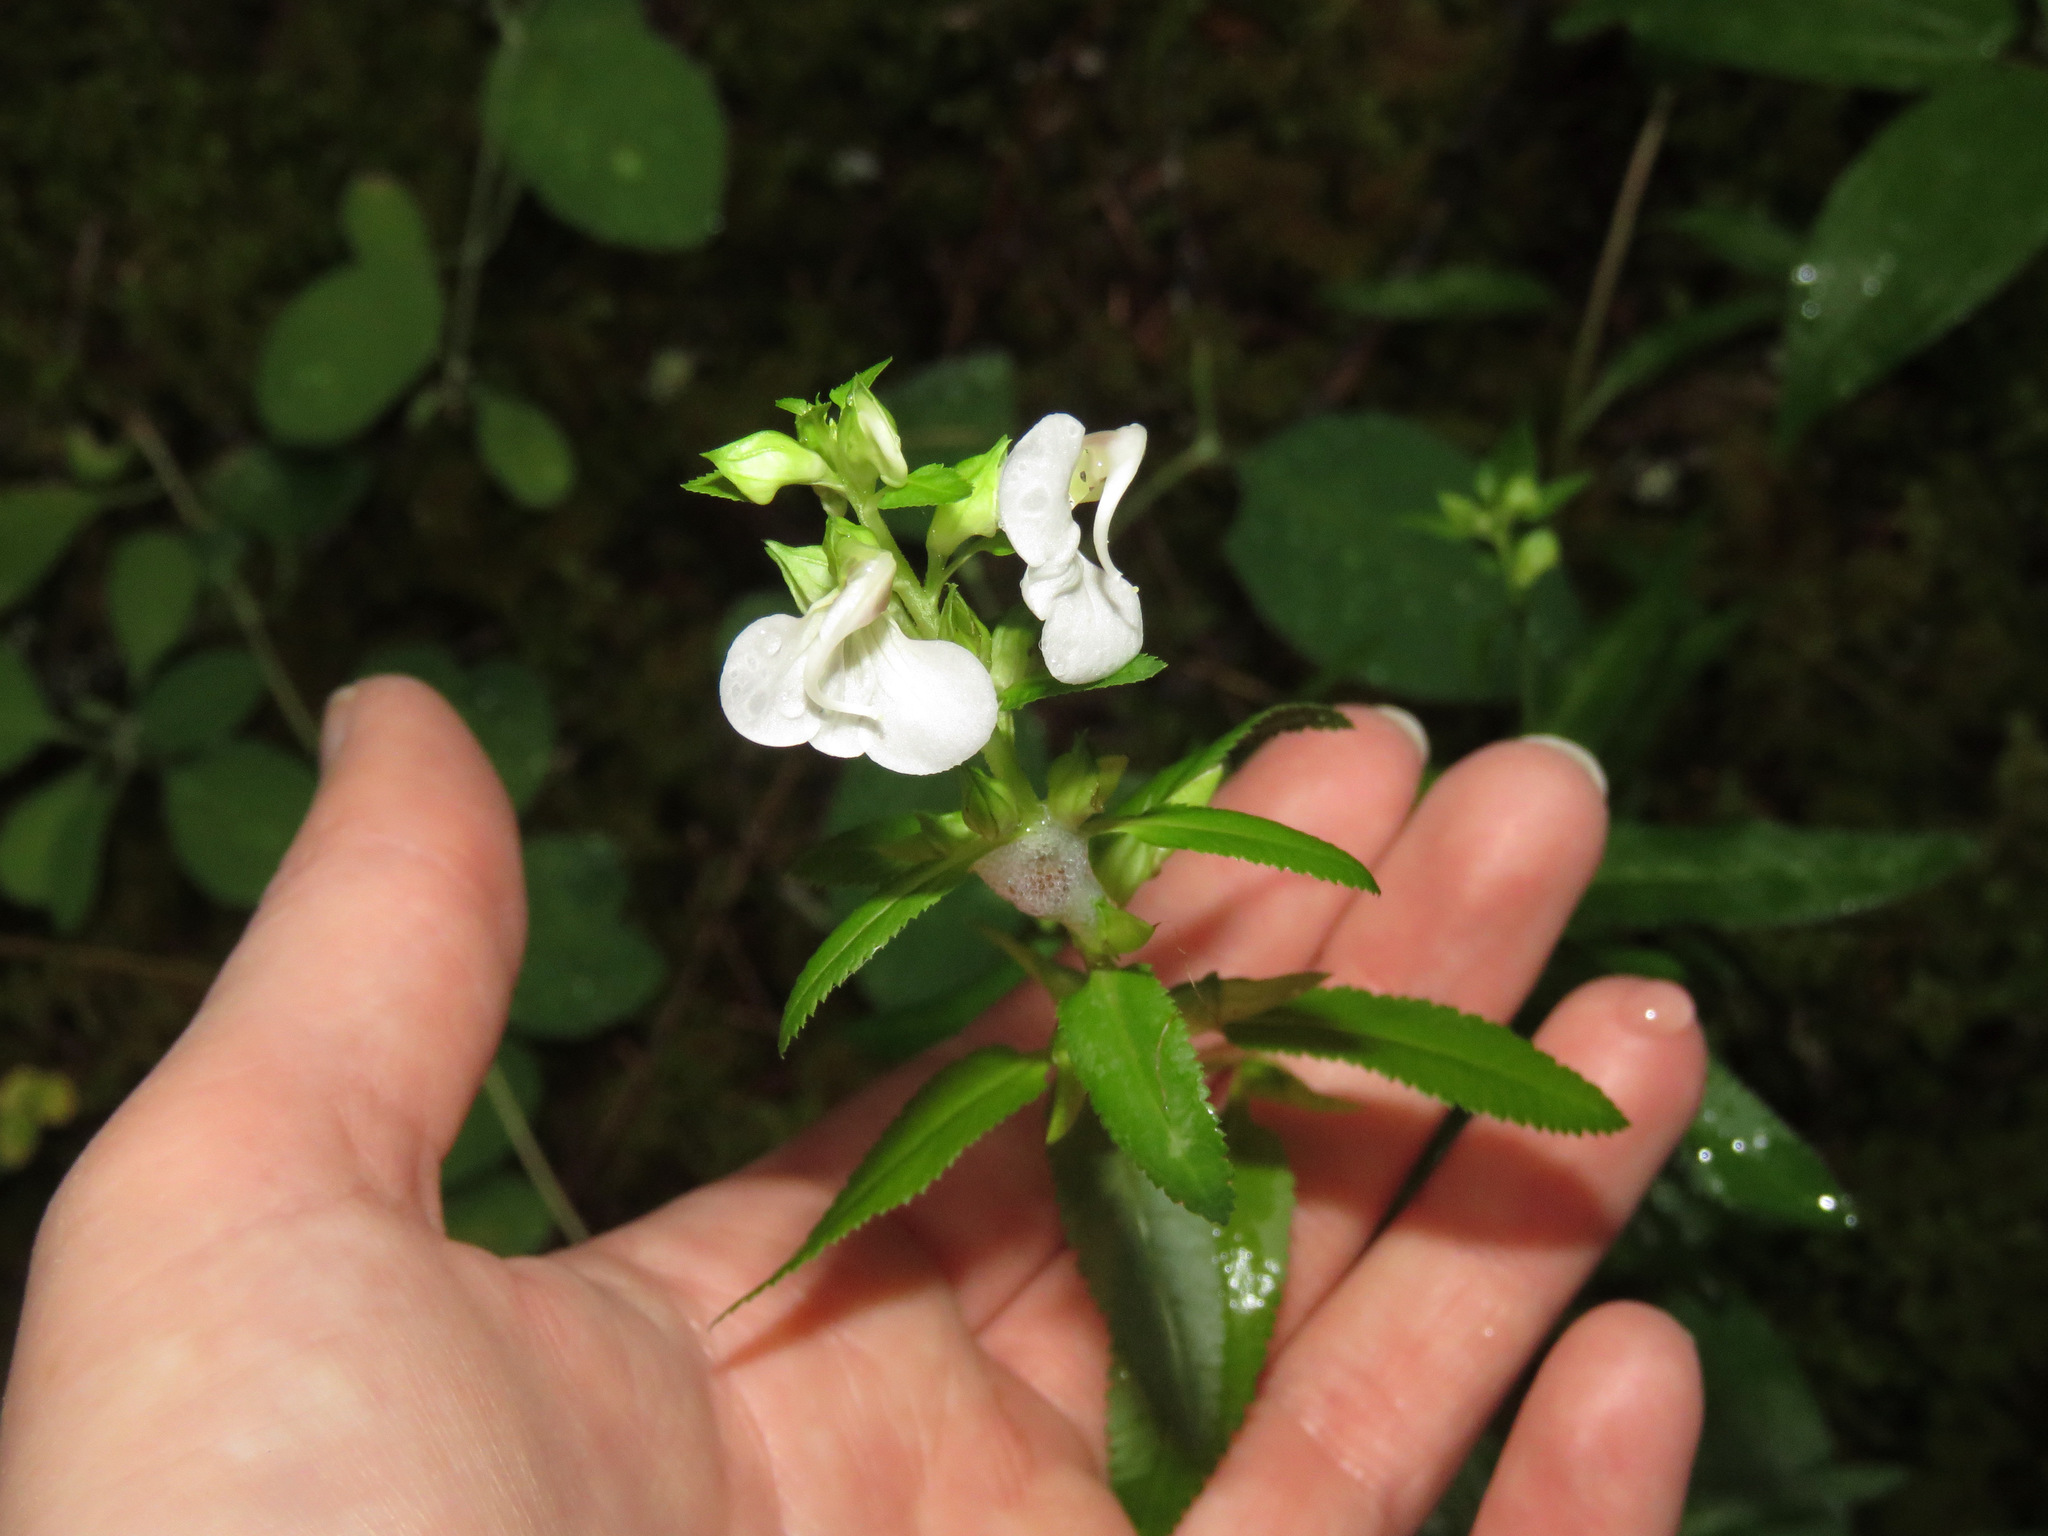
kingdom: Plantae
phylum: Tracheophyta
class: Magnoliopsida
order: Lamiales
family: Orobanchaceae
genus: Pedicularis
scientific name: Pedicularis racemosa
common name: Leafy lousewort
